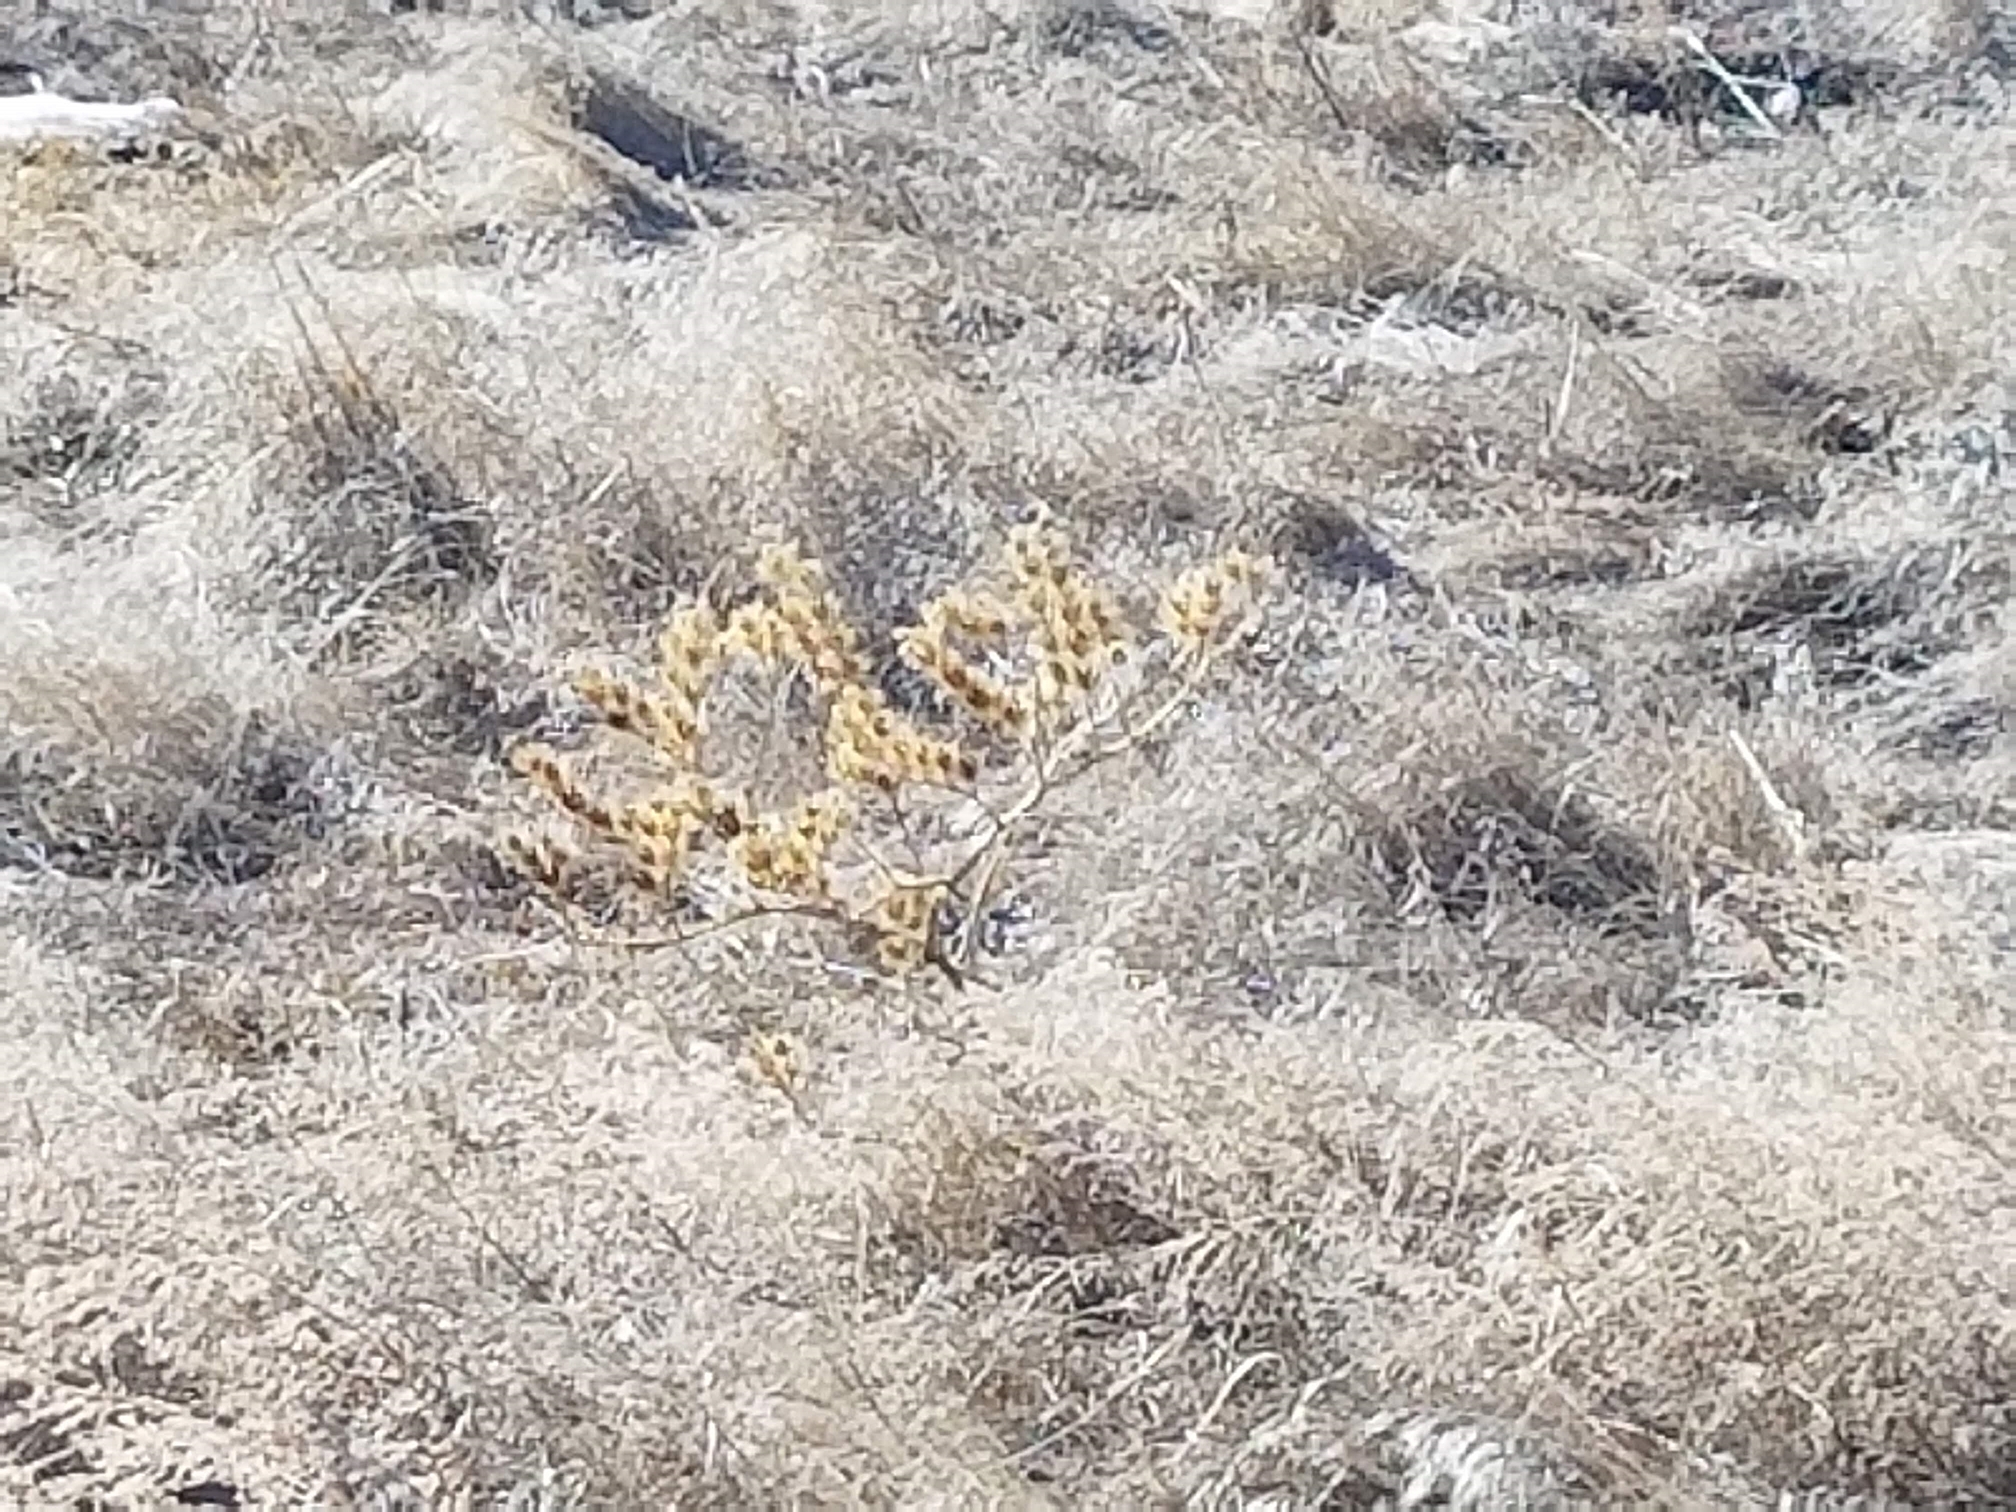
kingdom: Plantae
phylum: Tracheophyta
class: Magnoliopsida
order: Solanales
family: Solanaceae
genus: Solanum
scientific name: Solanum angustifolium
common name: Buffalobur nightshade
